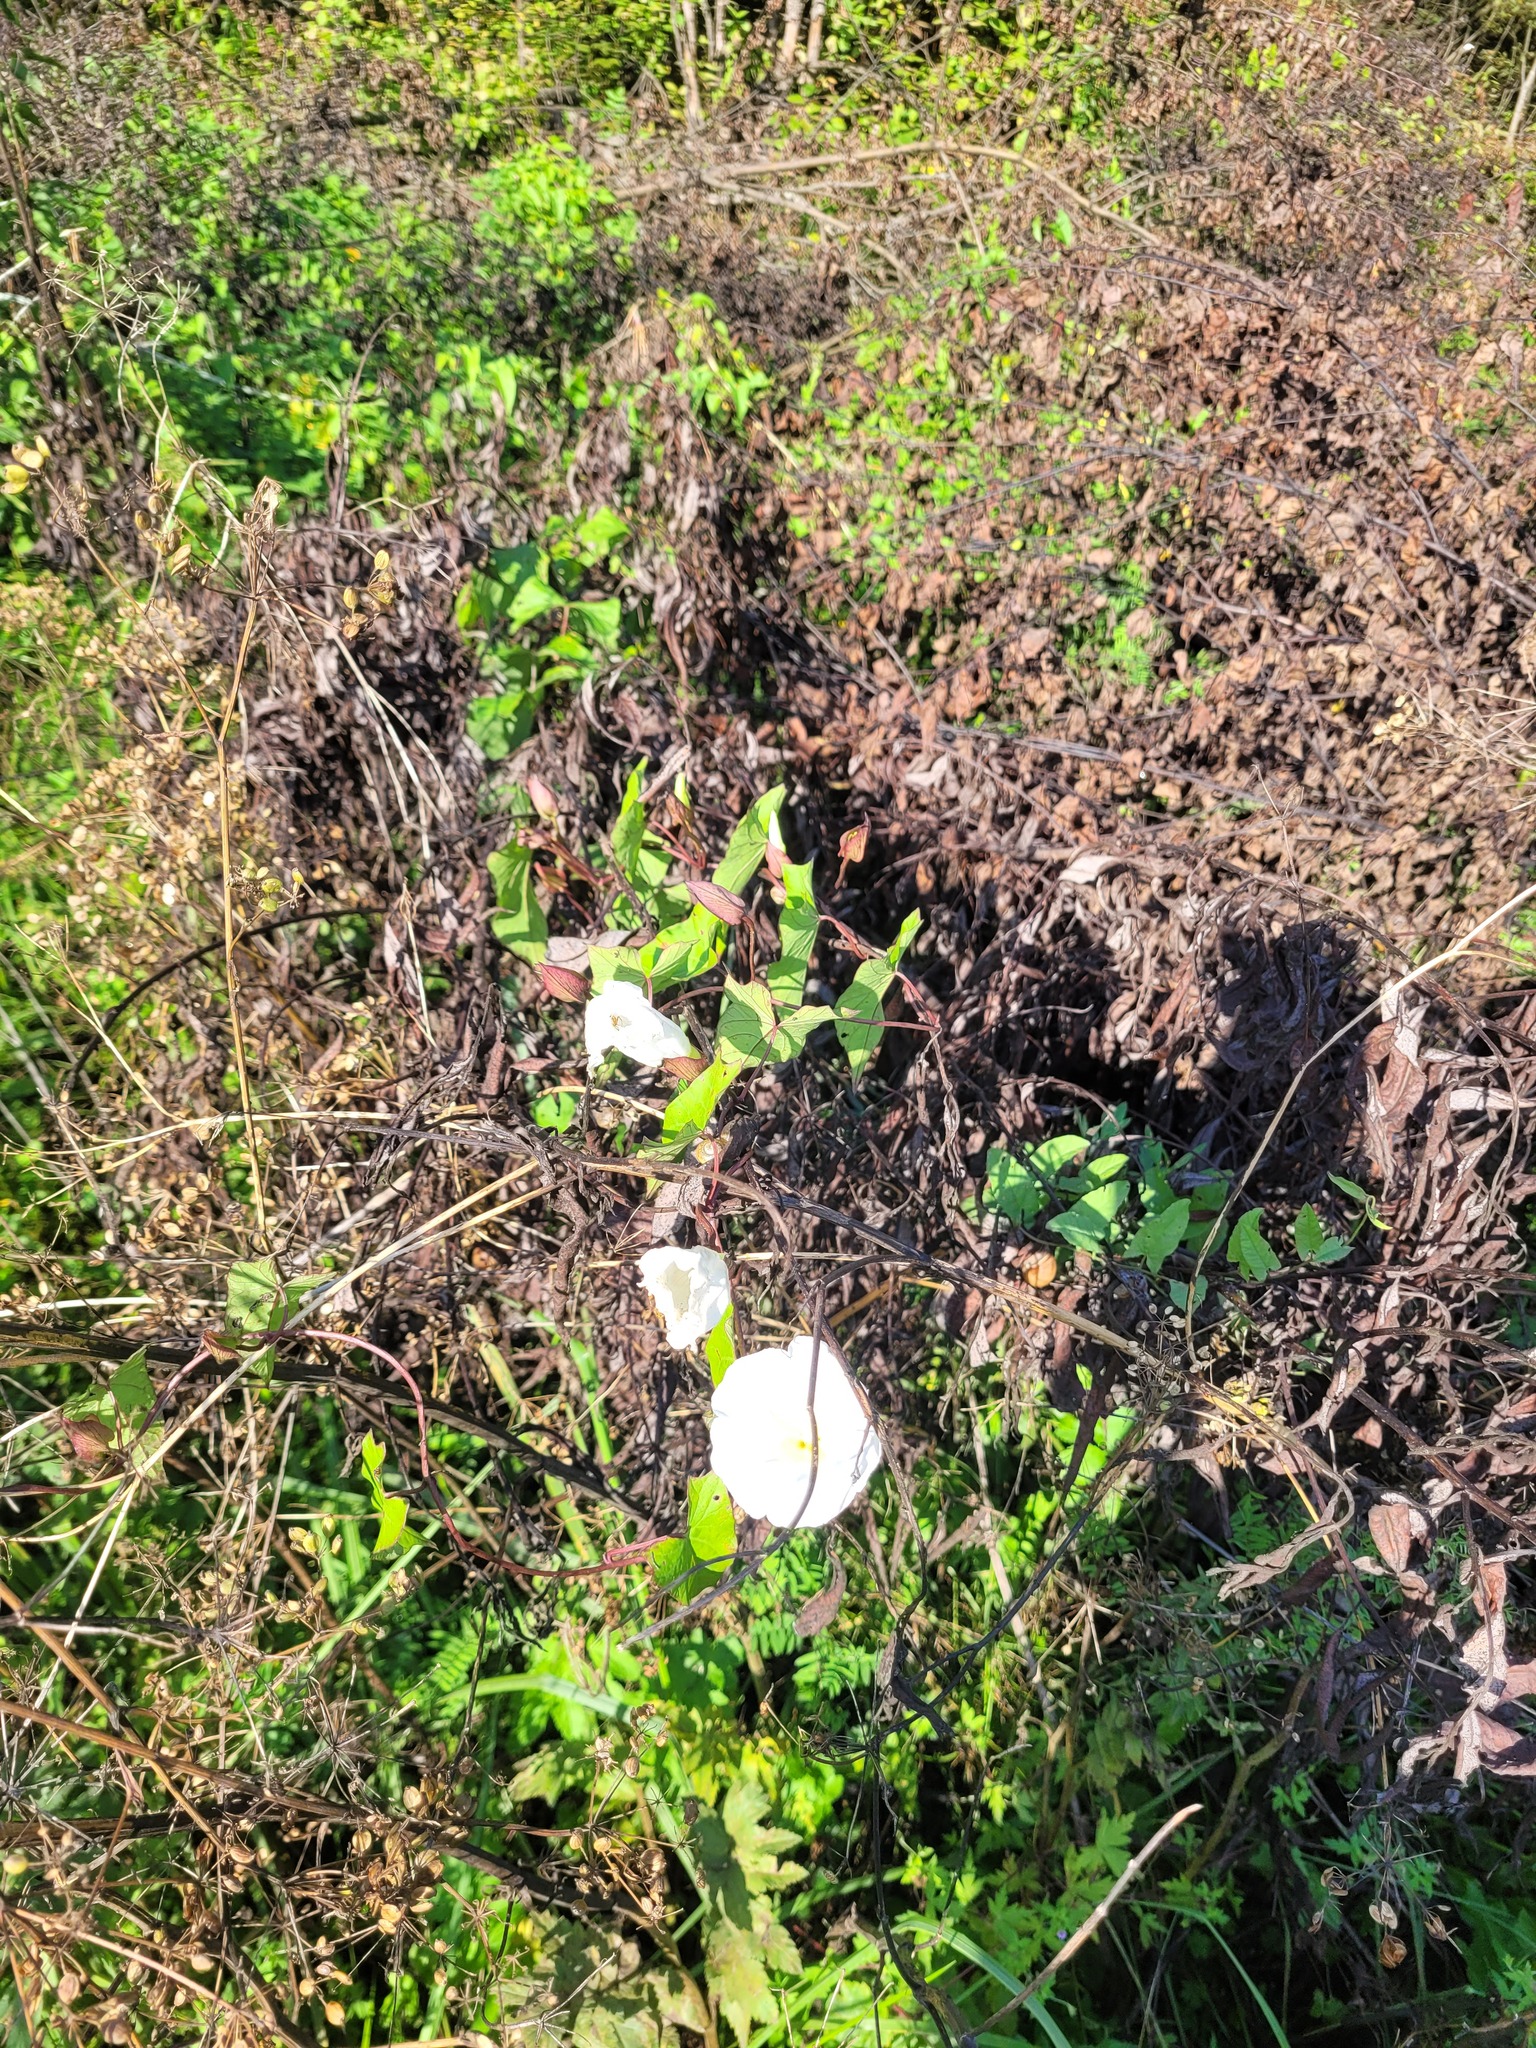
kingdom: Plantae
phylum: Tracheophyta
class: Magnoliopsida
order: Solanales
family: Convolvulaceae
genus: Calystegia
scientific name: Calystegia sepium
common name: Hedge bindweed
